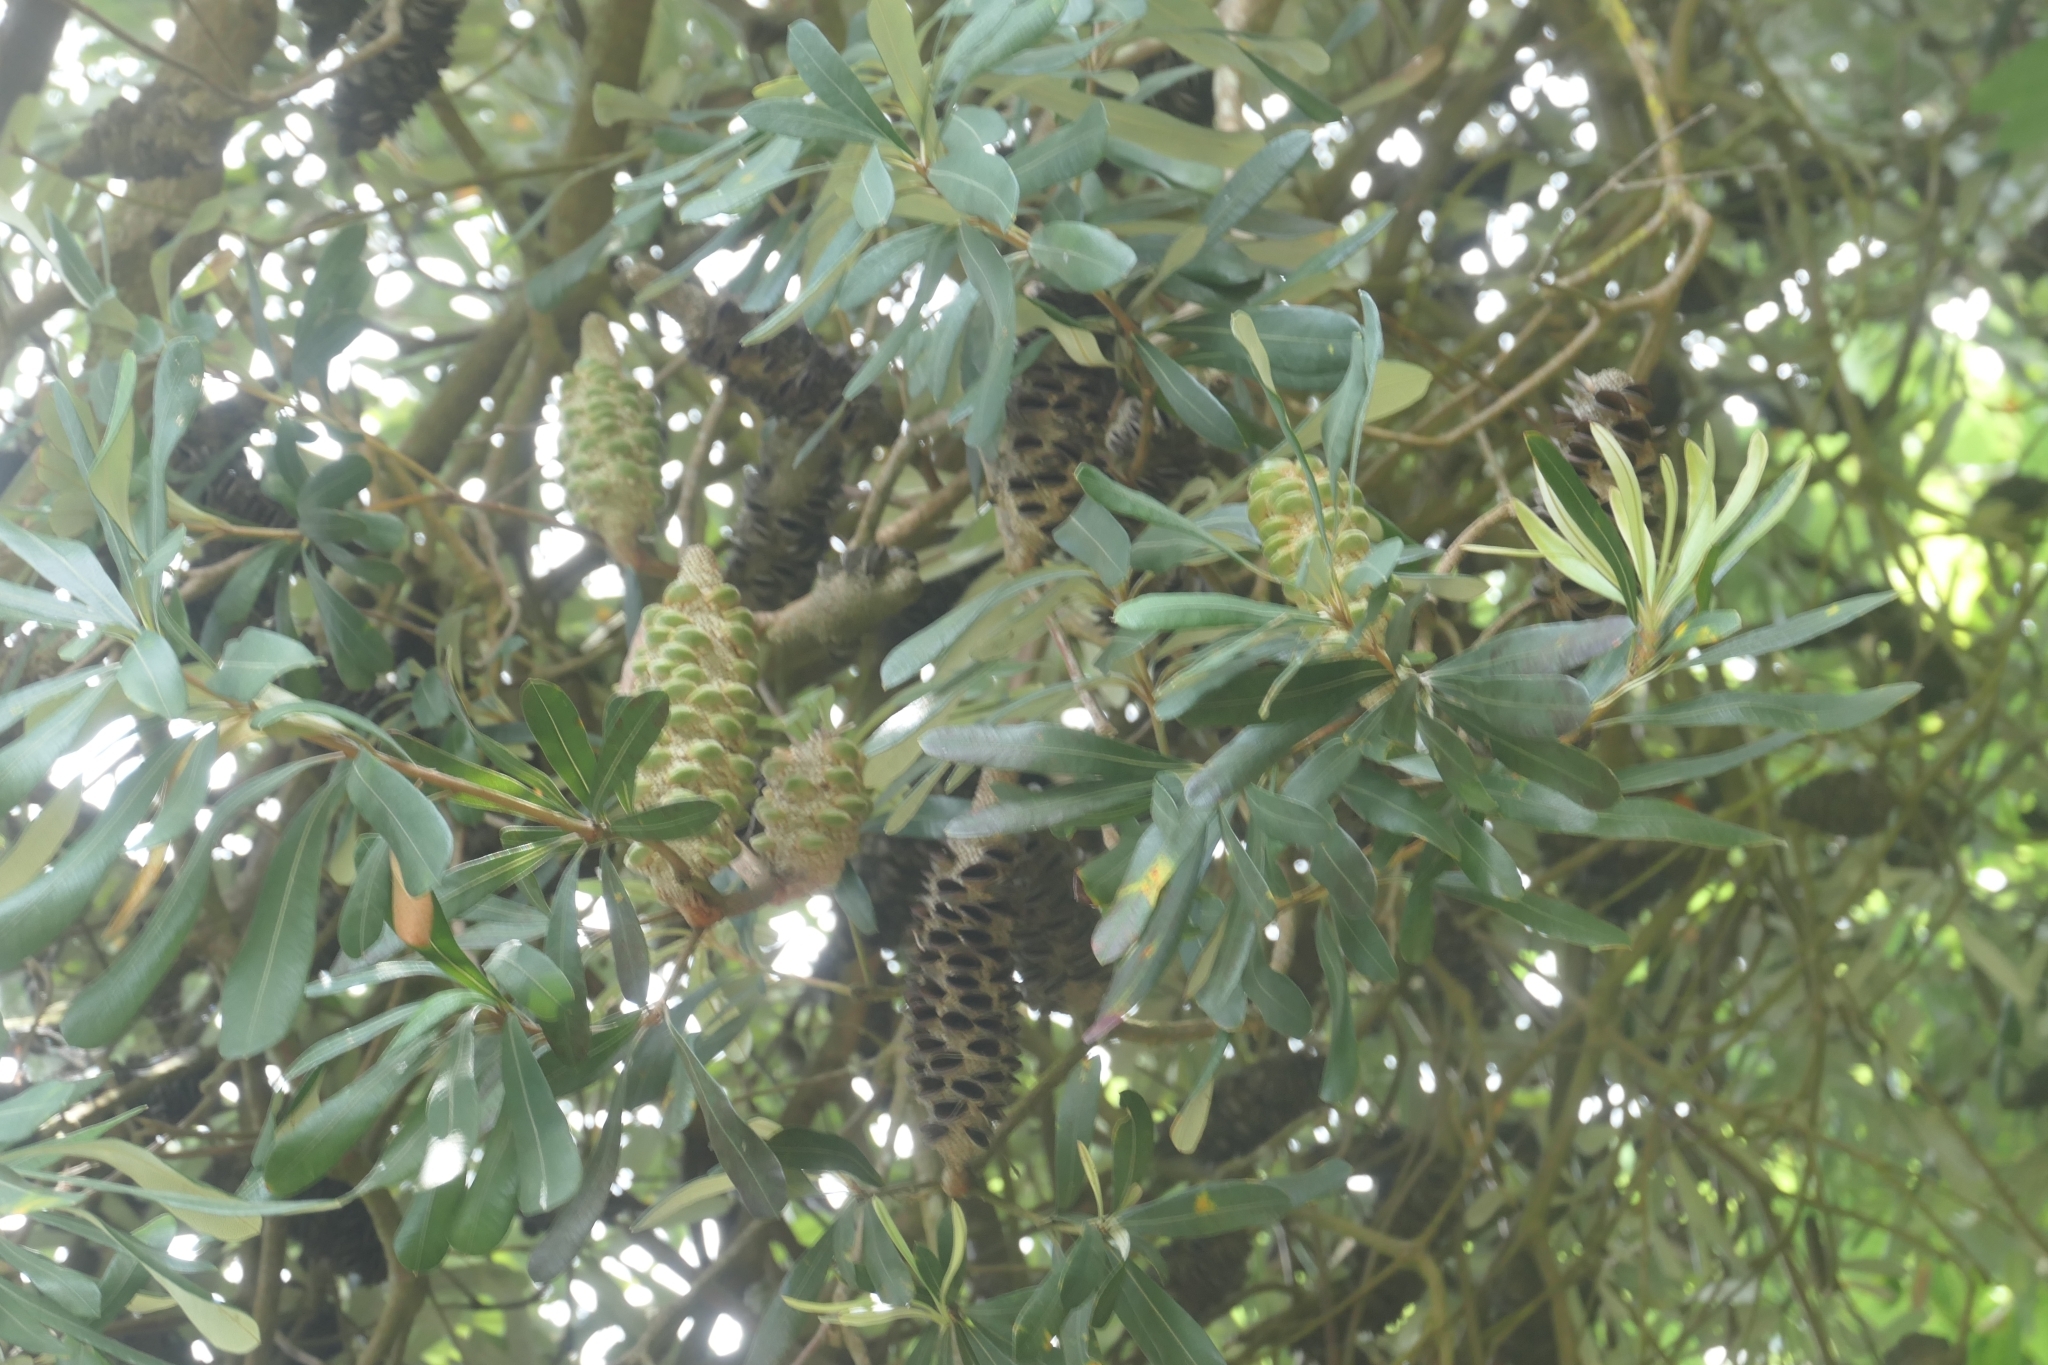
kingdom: Plantae
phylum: Tracheophyta
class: Magnoliopsida
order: Proteales
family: Proteaceae
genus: Banksia
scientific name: Banksia integrifolia
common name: White-honeysuckle
